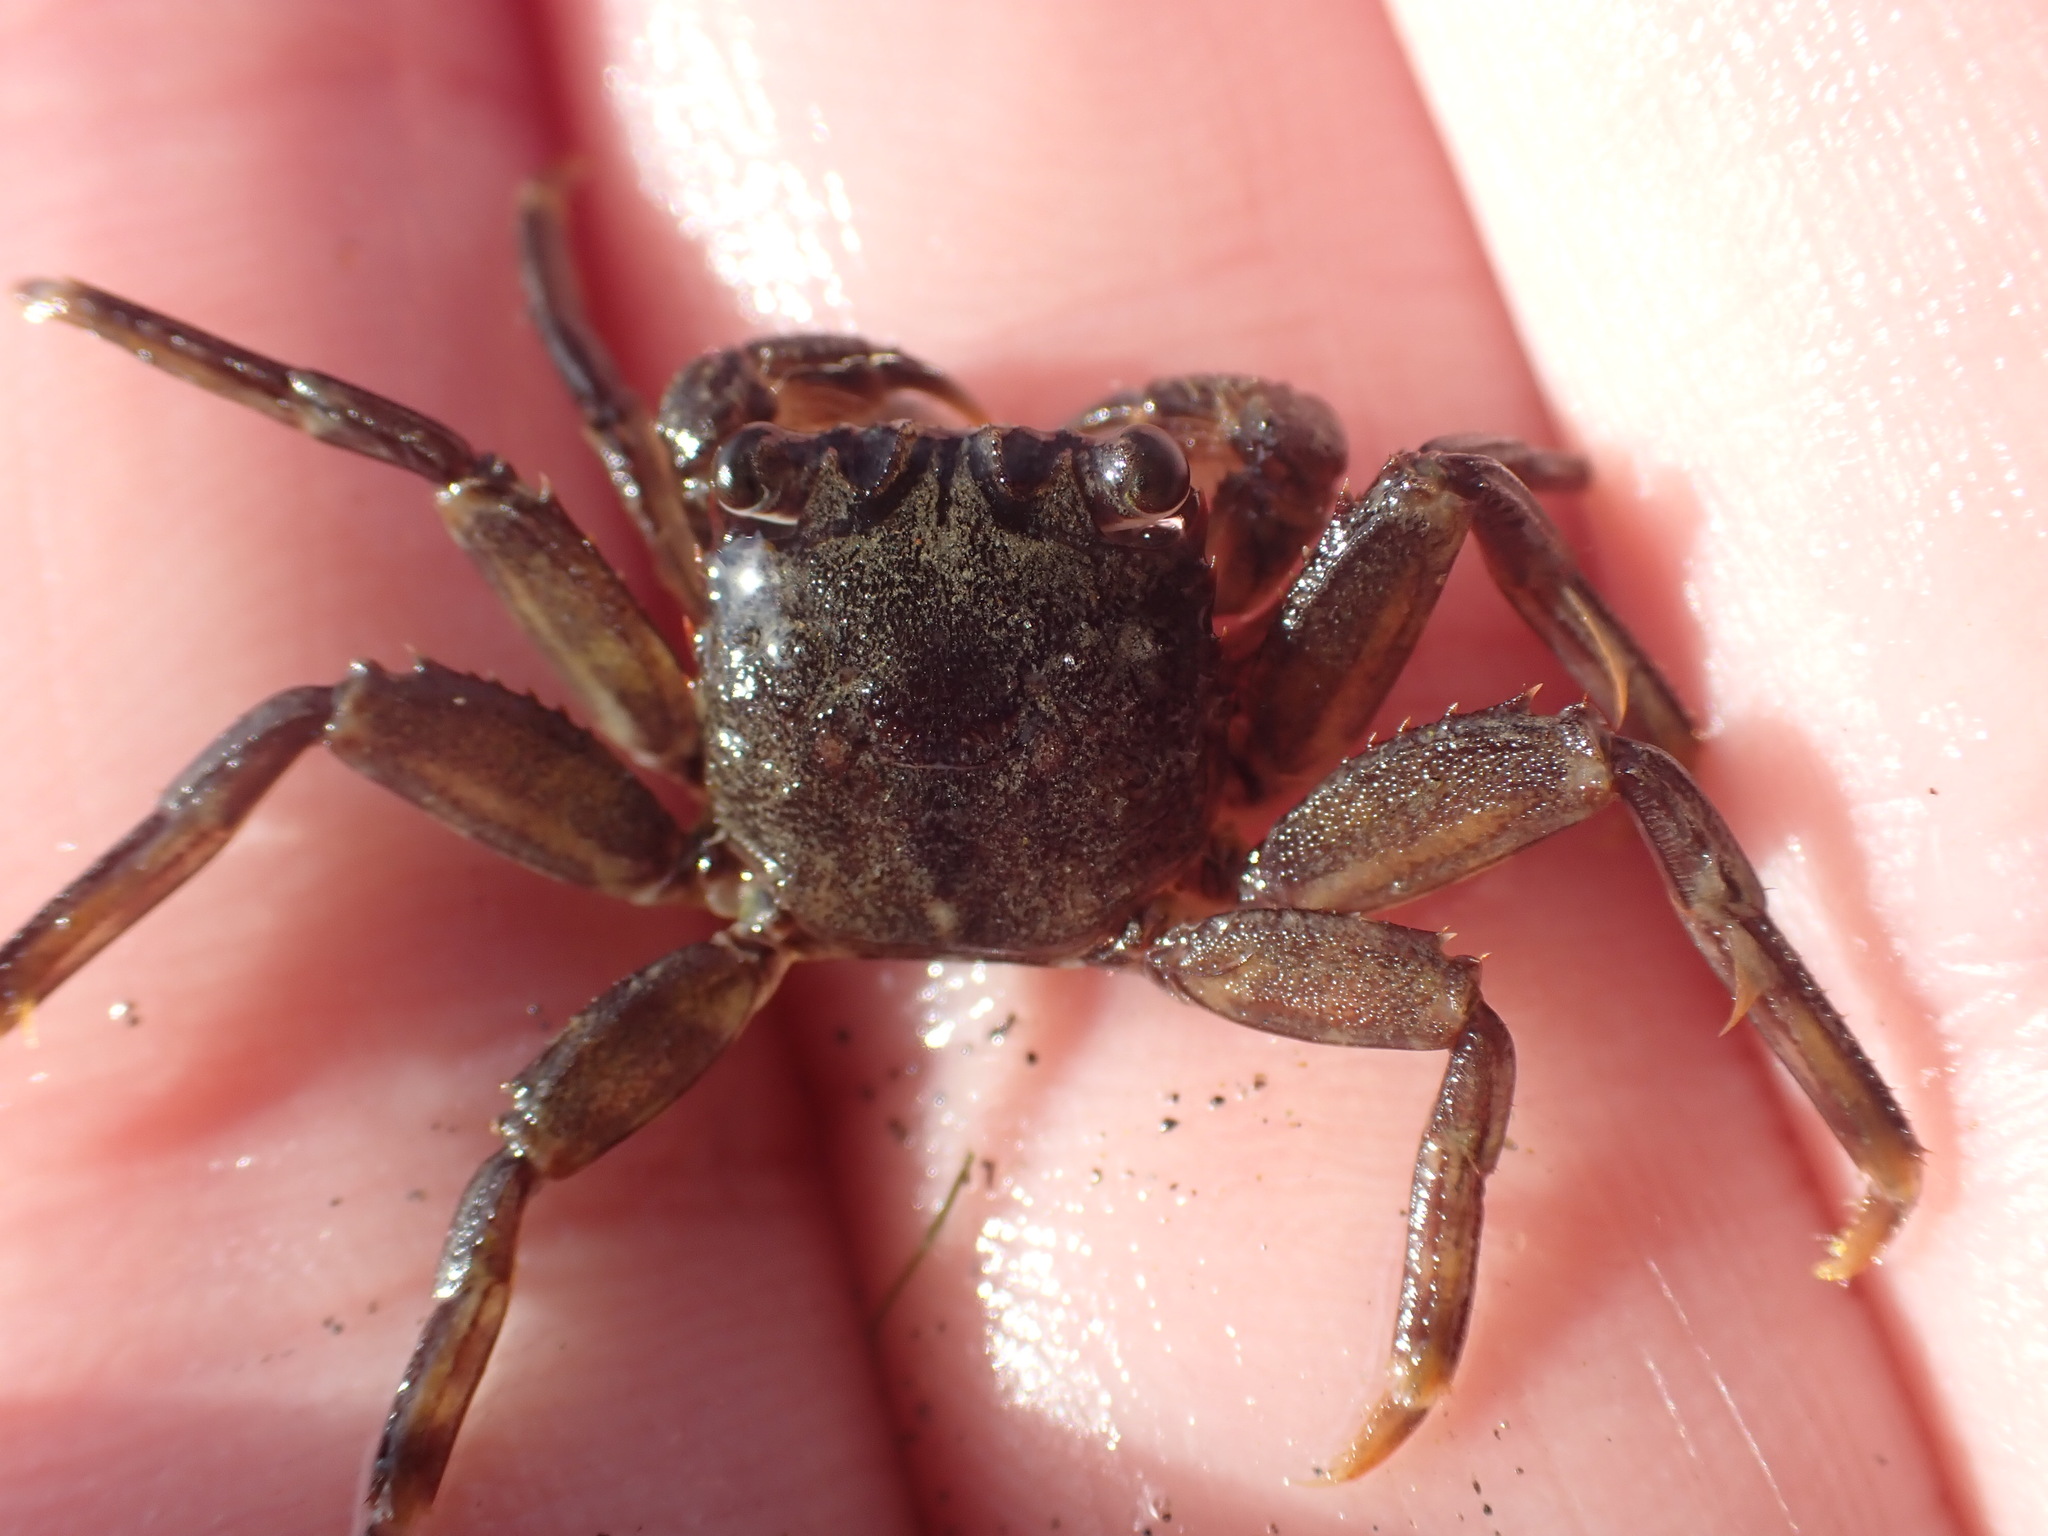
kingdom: Animalia
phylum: Arthropoda
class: Malacostraca
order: Decapoda
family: Plagusiidae
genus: Guinusia
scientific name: Guinusia chabrus
